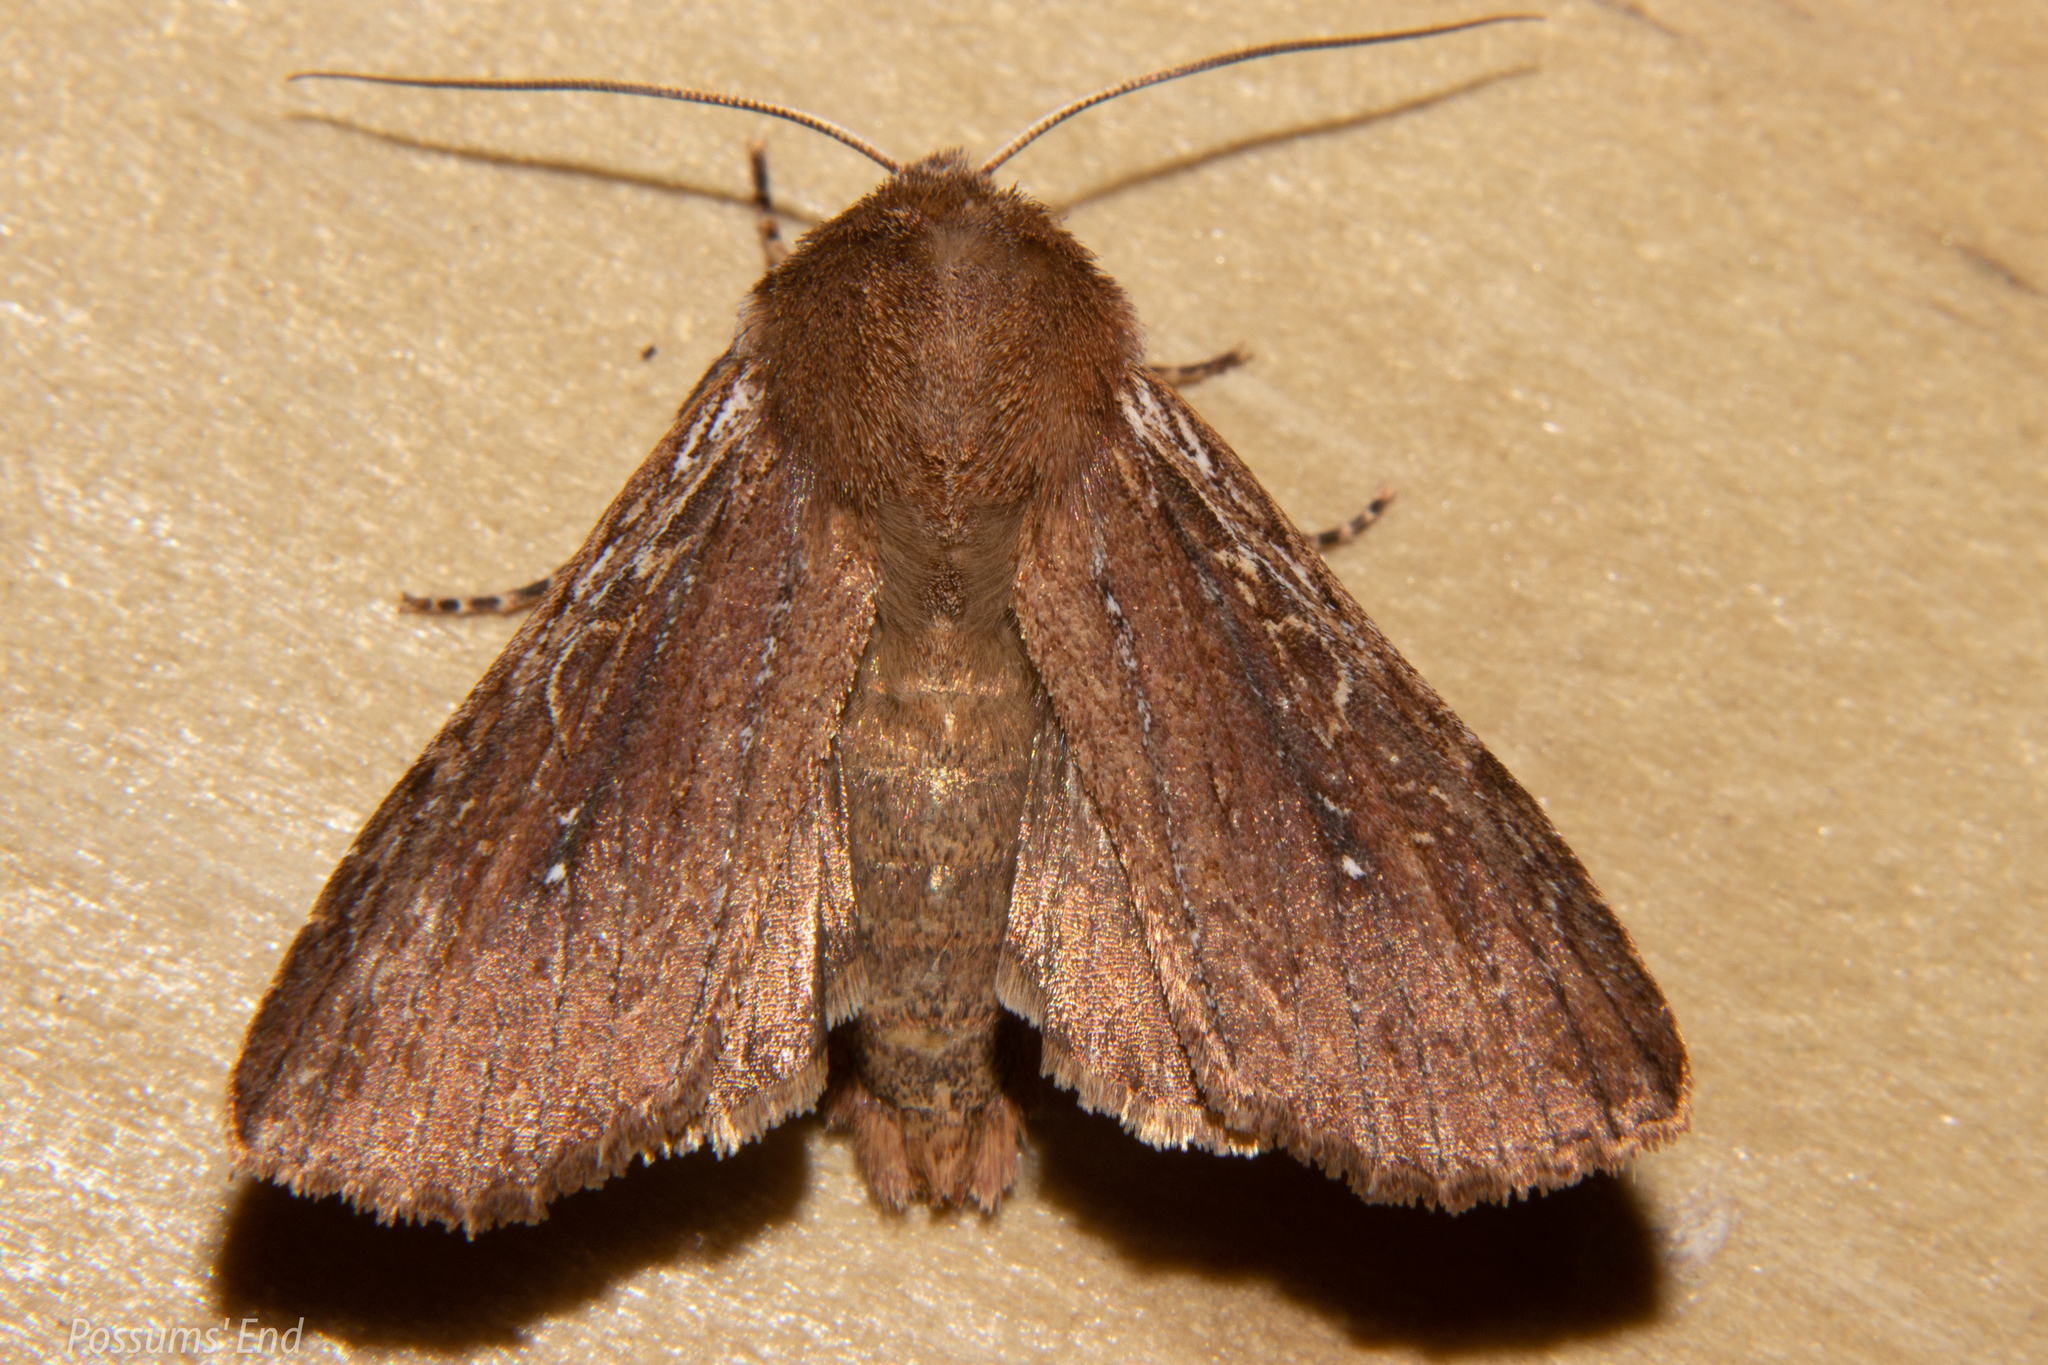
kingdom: Animalia
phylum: Arthropoda
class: Insecta
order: Lepidoptera
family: Noctuidae
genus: Ichneutica
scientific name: Ichneutica
